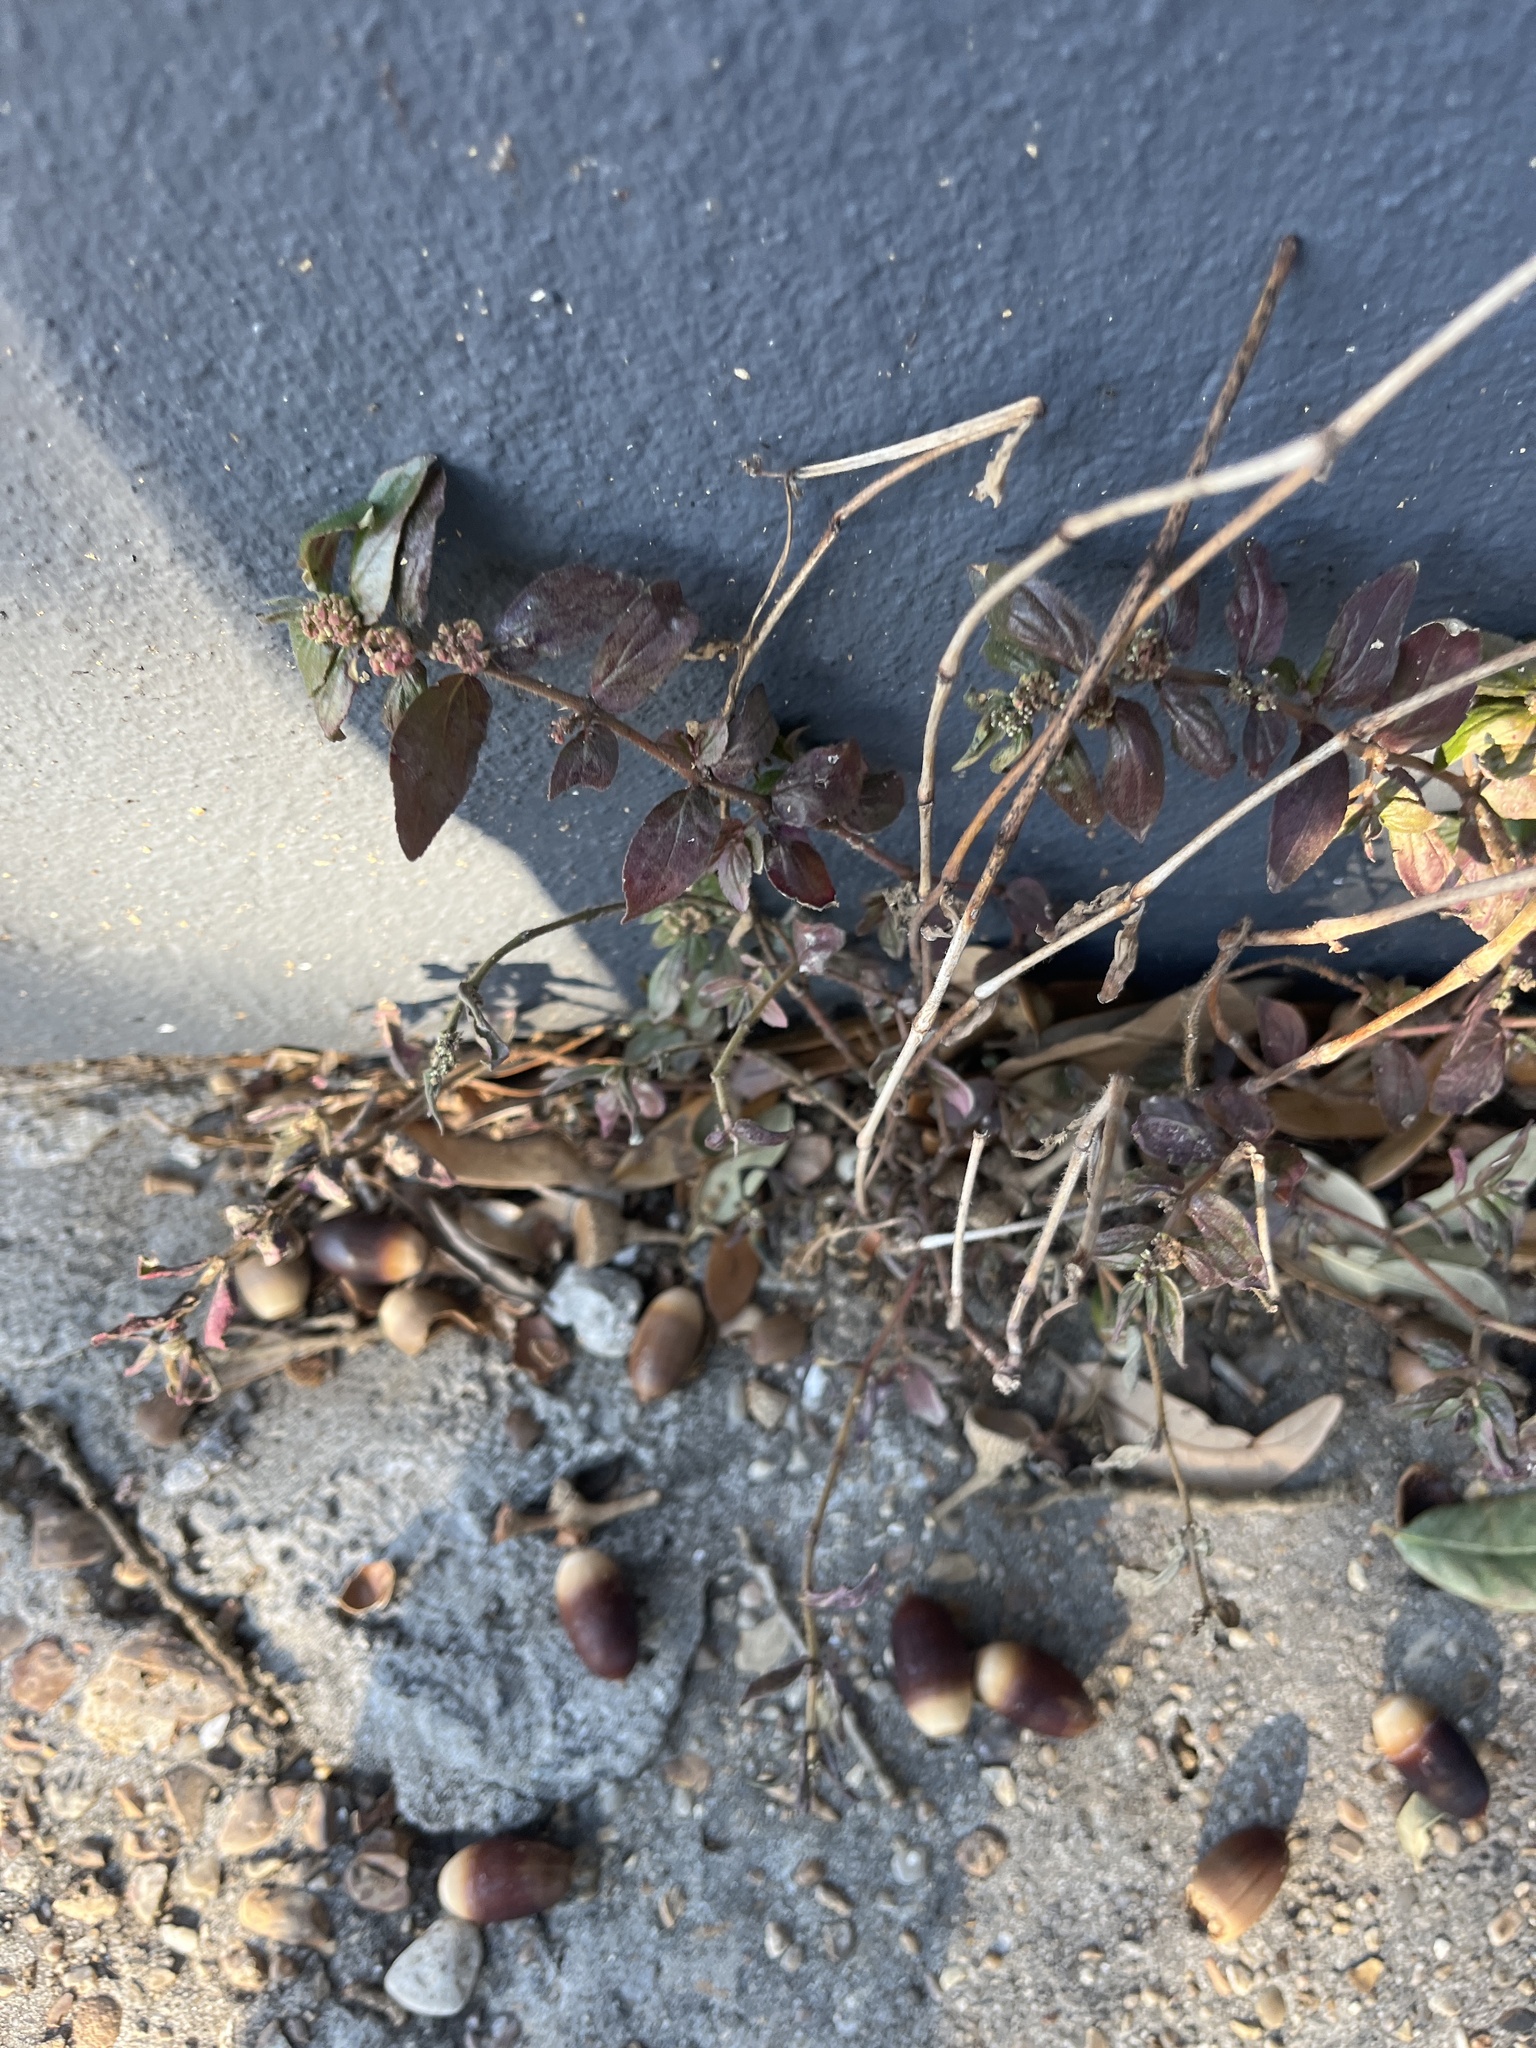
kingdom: Plantae
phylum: Tracheophyta
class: Magnoliopsida
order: Malpighiales
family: Euphorbiaceae
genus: Euphorbia
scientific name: Euphorbia hirta
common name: Pillpod sandmat
